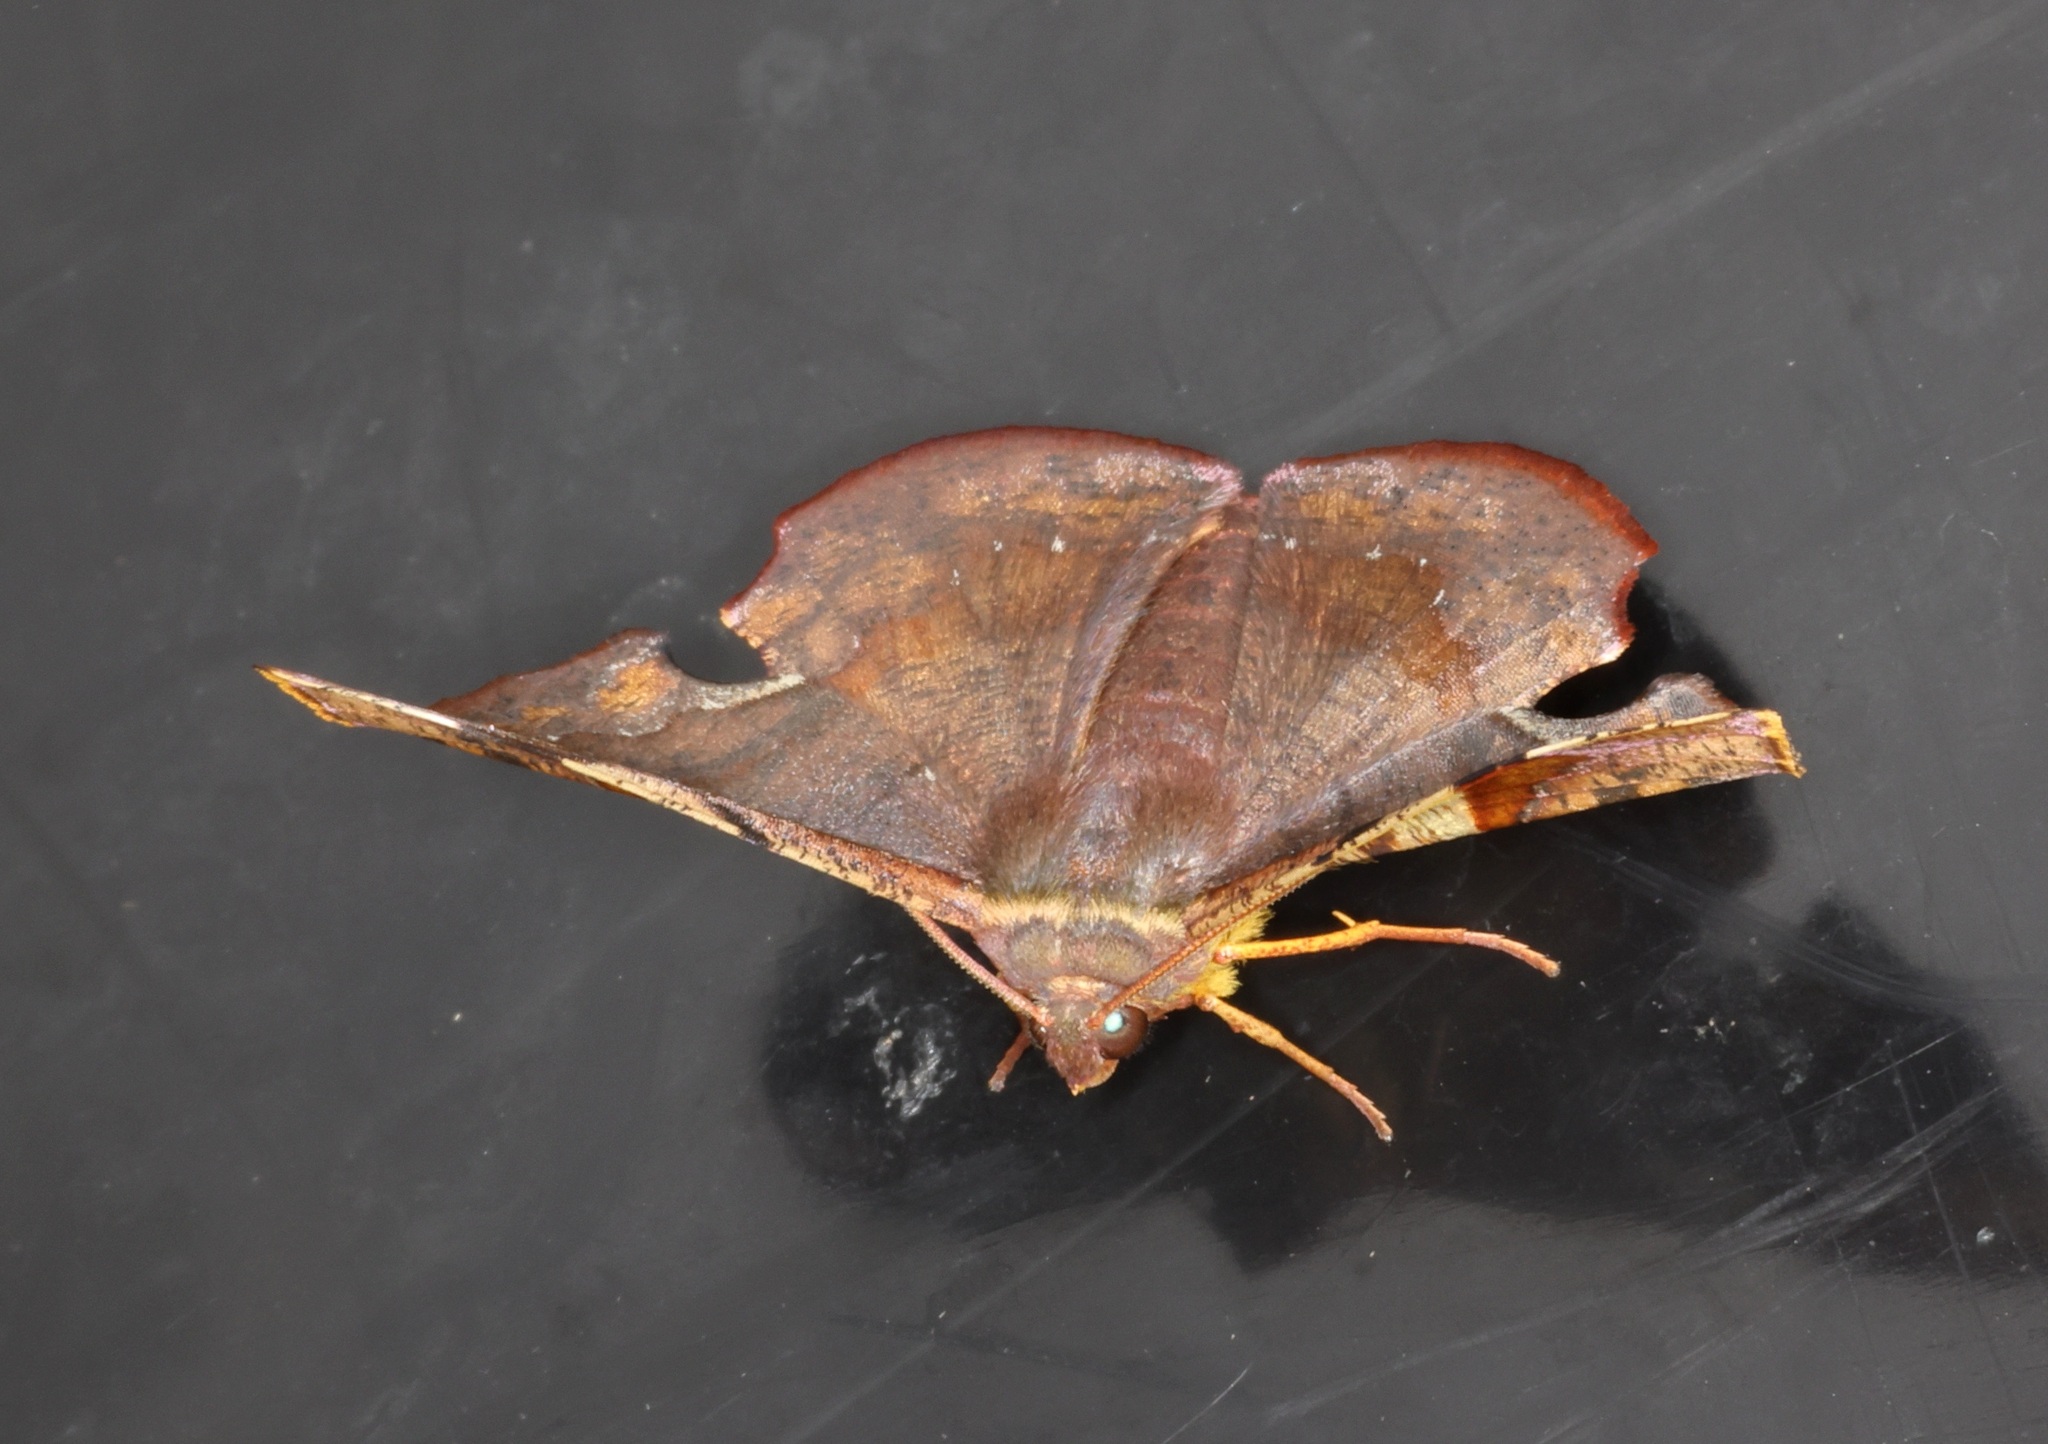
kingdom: Animalia
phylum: Arthropoda
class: Insecta
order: Lepidoptera
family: Geometridae
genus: Fascellina
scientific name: Fascellina chromataria
